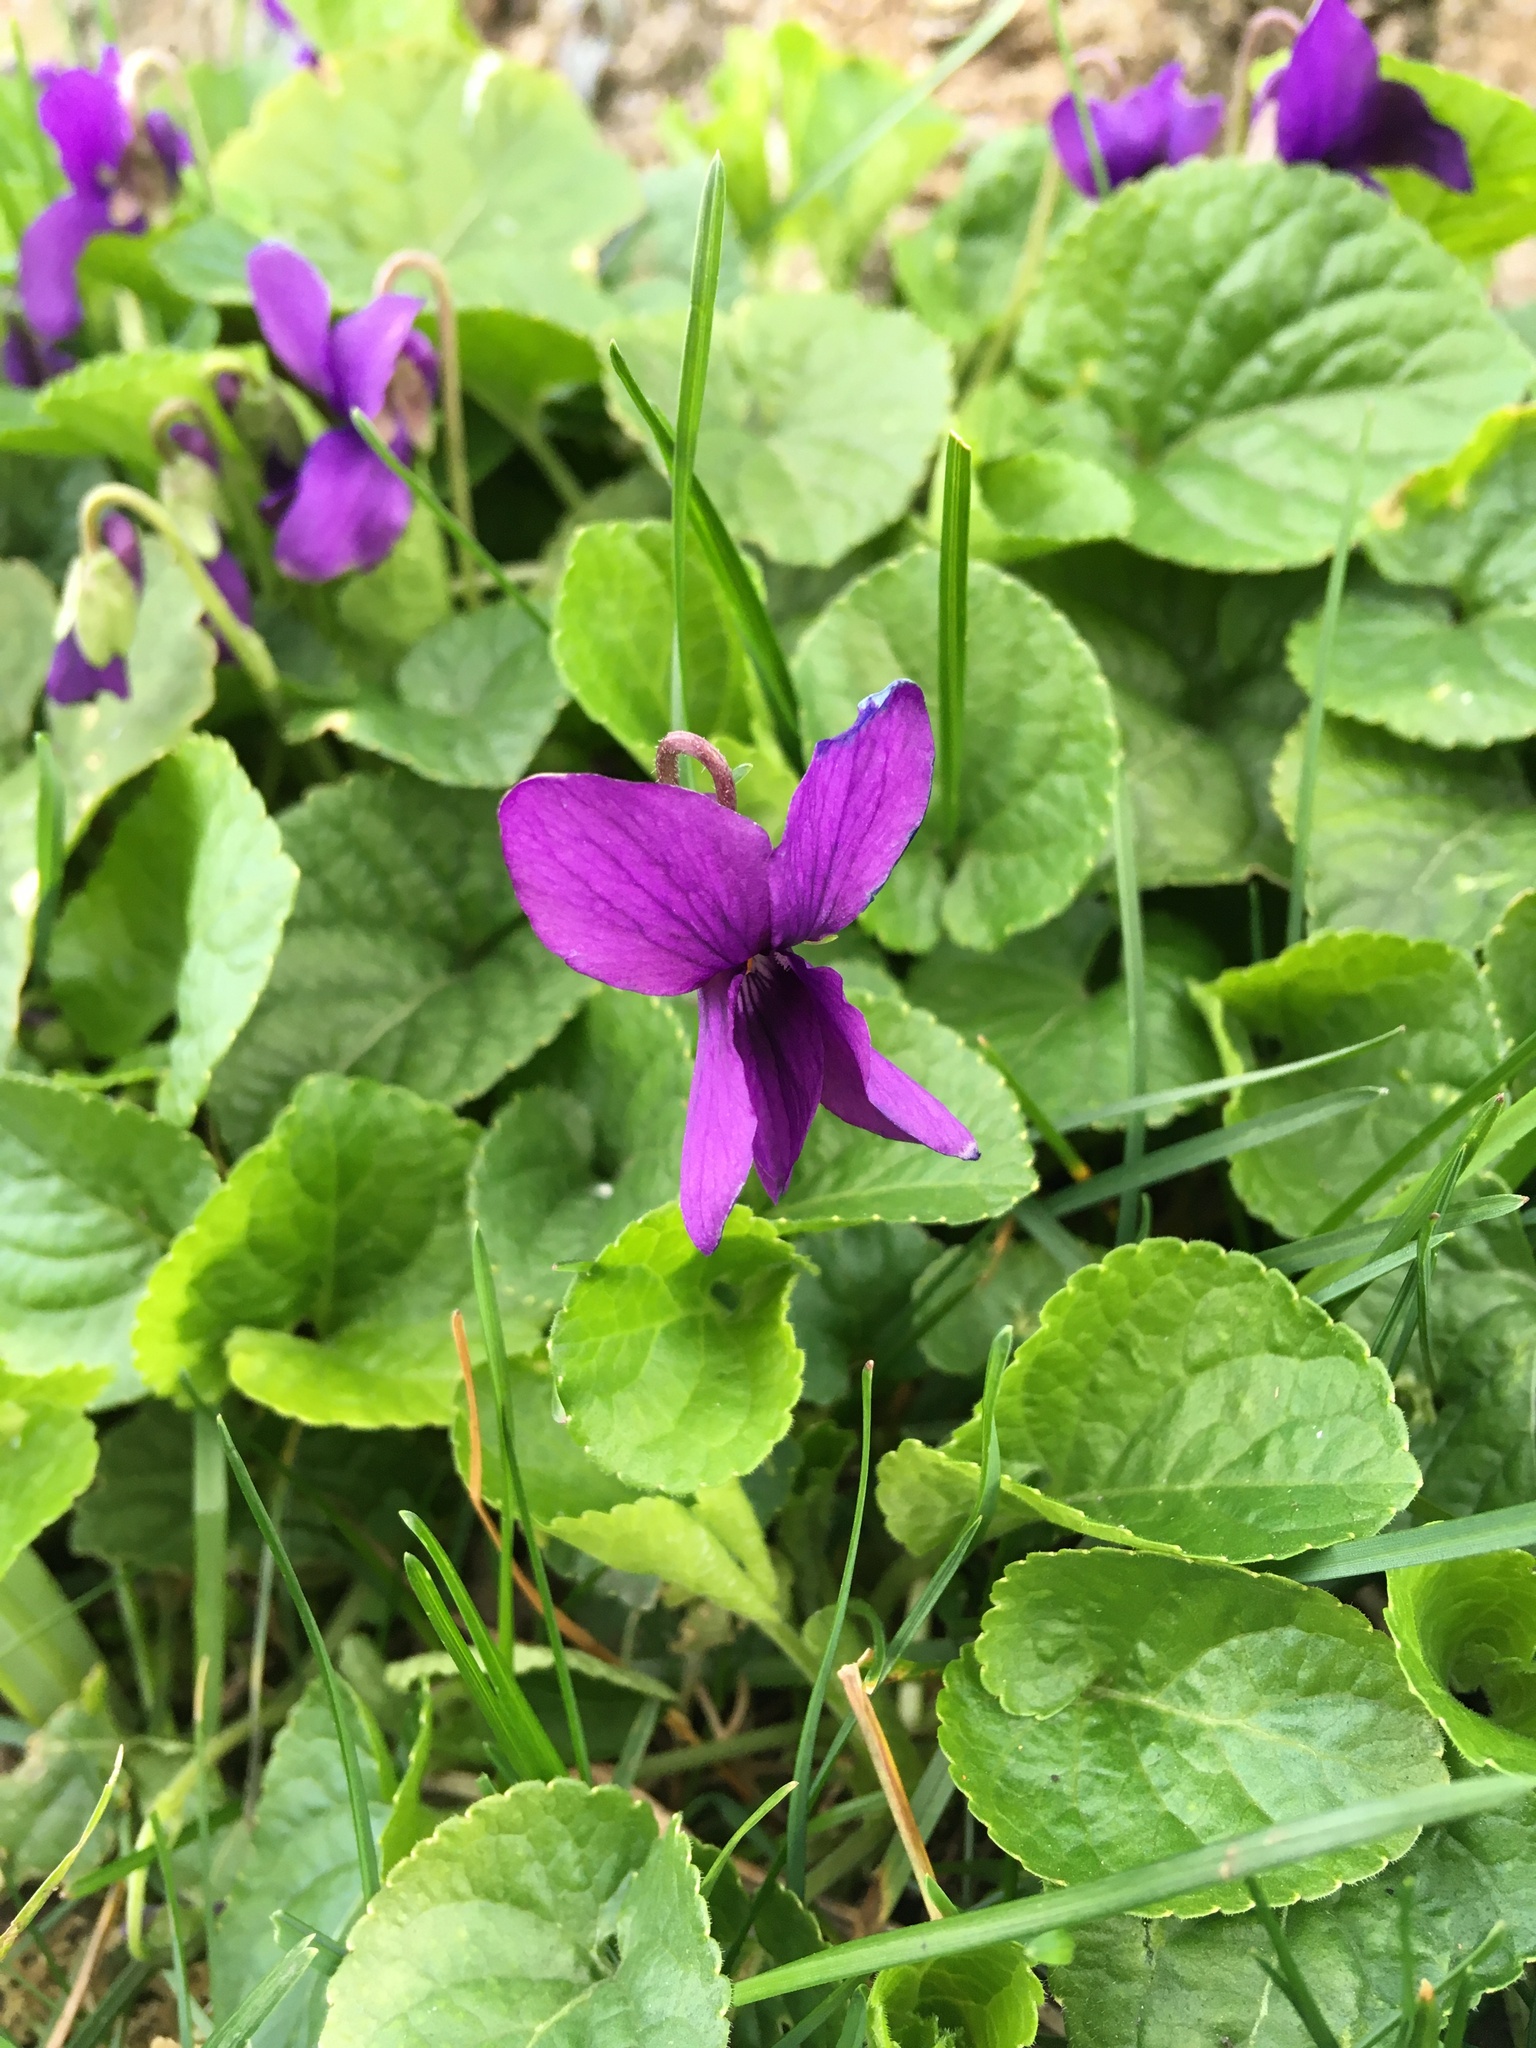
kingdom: Plantae
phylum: Tracheophyta
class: Magnoliopsida
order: Malpighiales
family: Violaceae
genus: Viola
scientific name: Viola odorata
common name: Sweet violet
